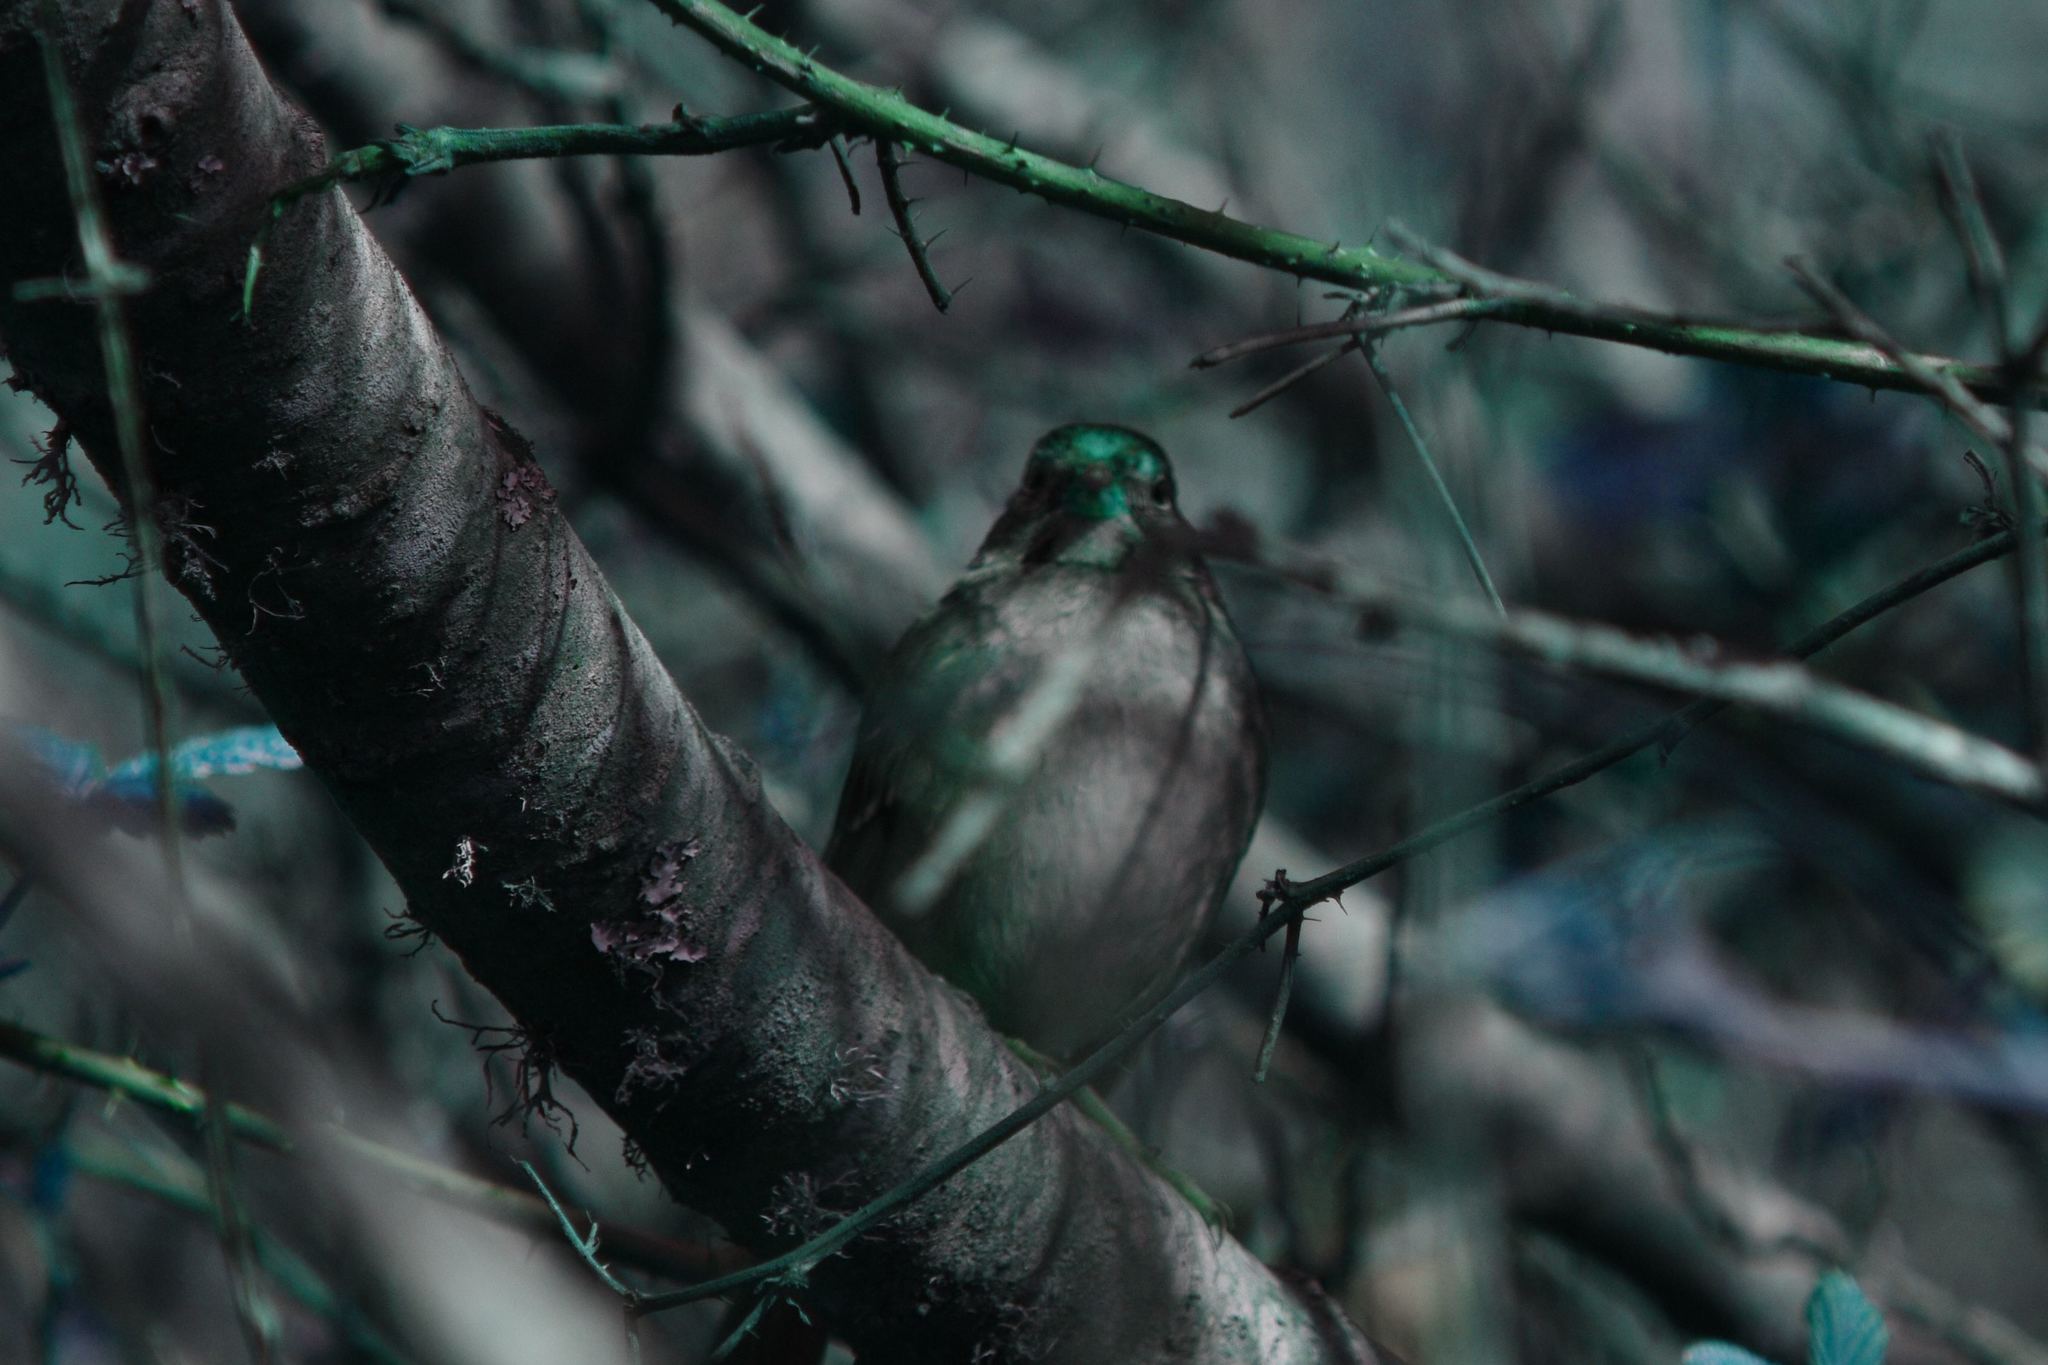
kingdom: Animalia
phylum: Chordata
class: Aves
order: Passeriformes
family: Passerellidae
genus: Zonotrichia
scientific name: Zonotrichia atricapilla
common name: Golden-crowned sparrow
